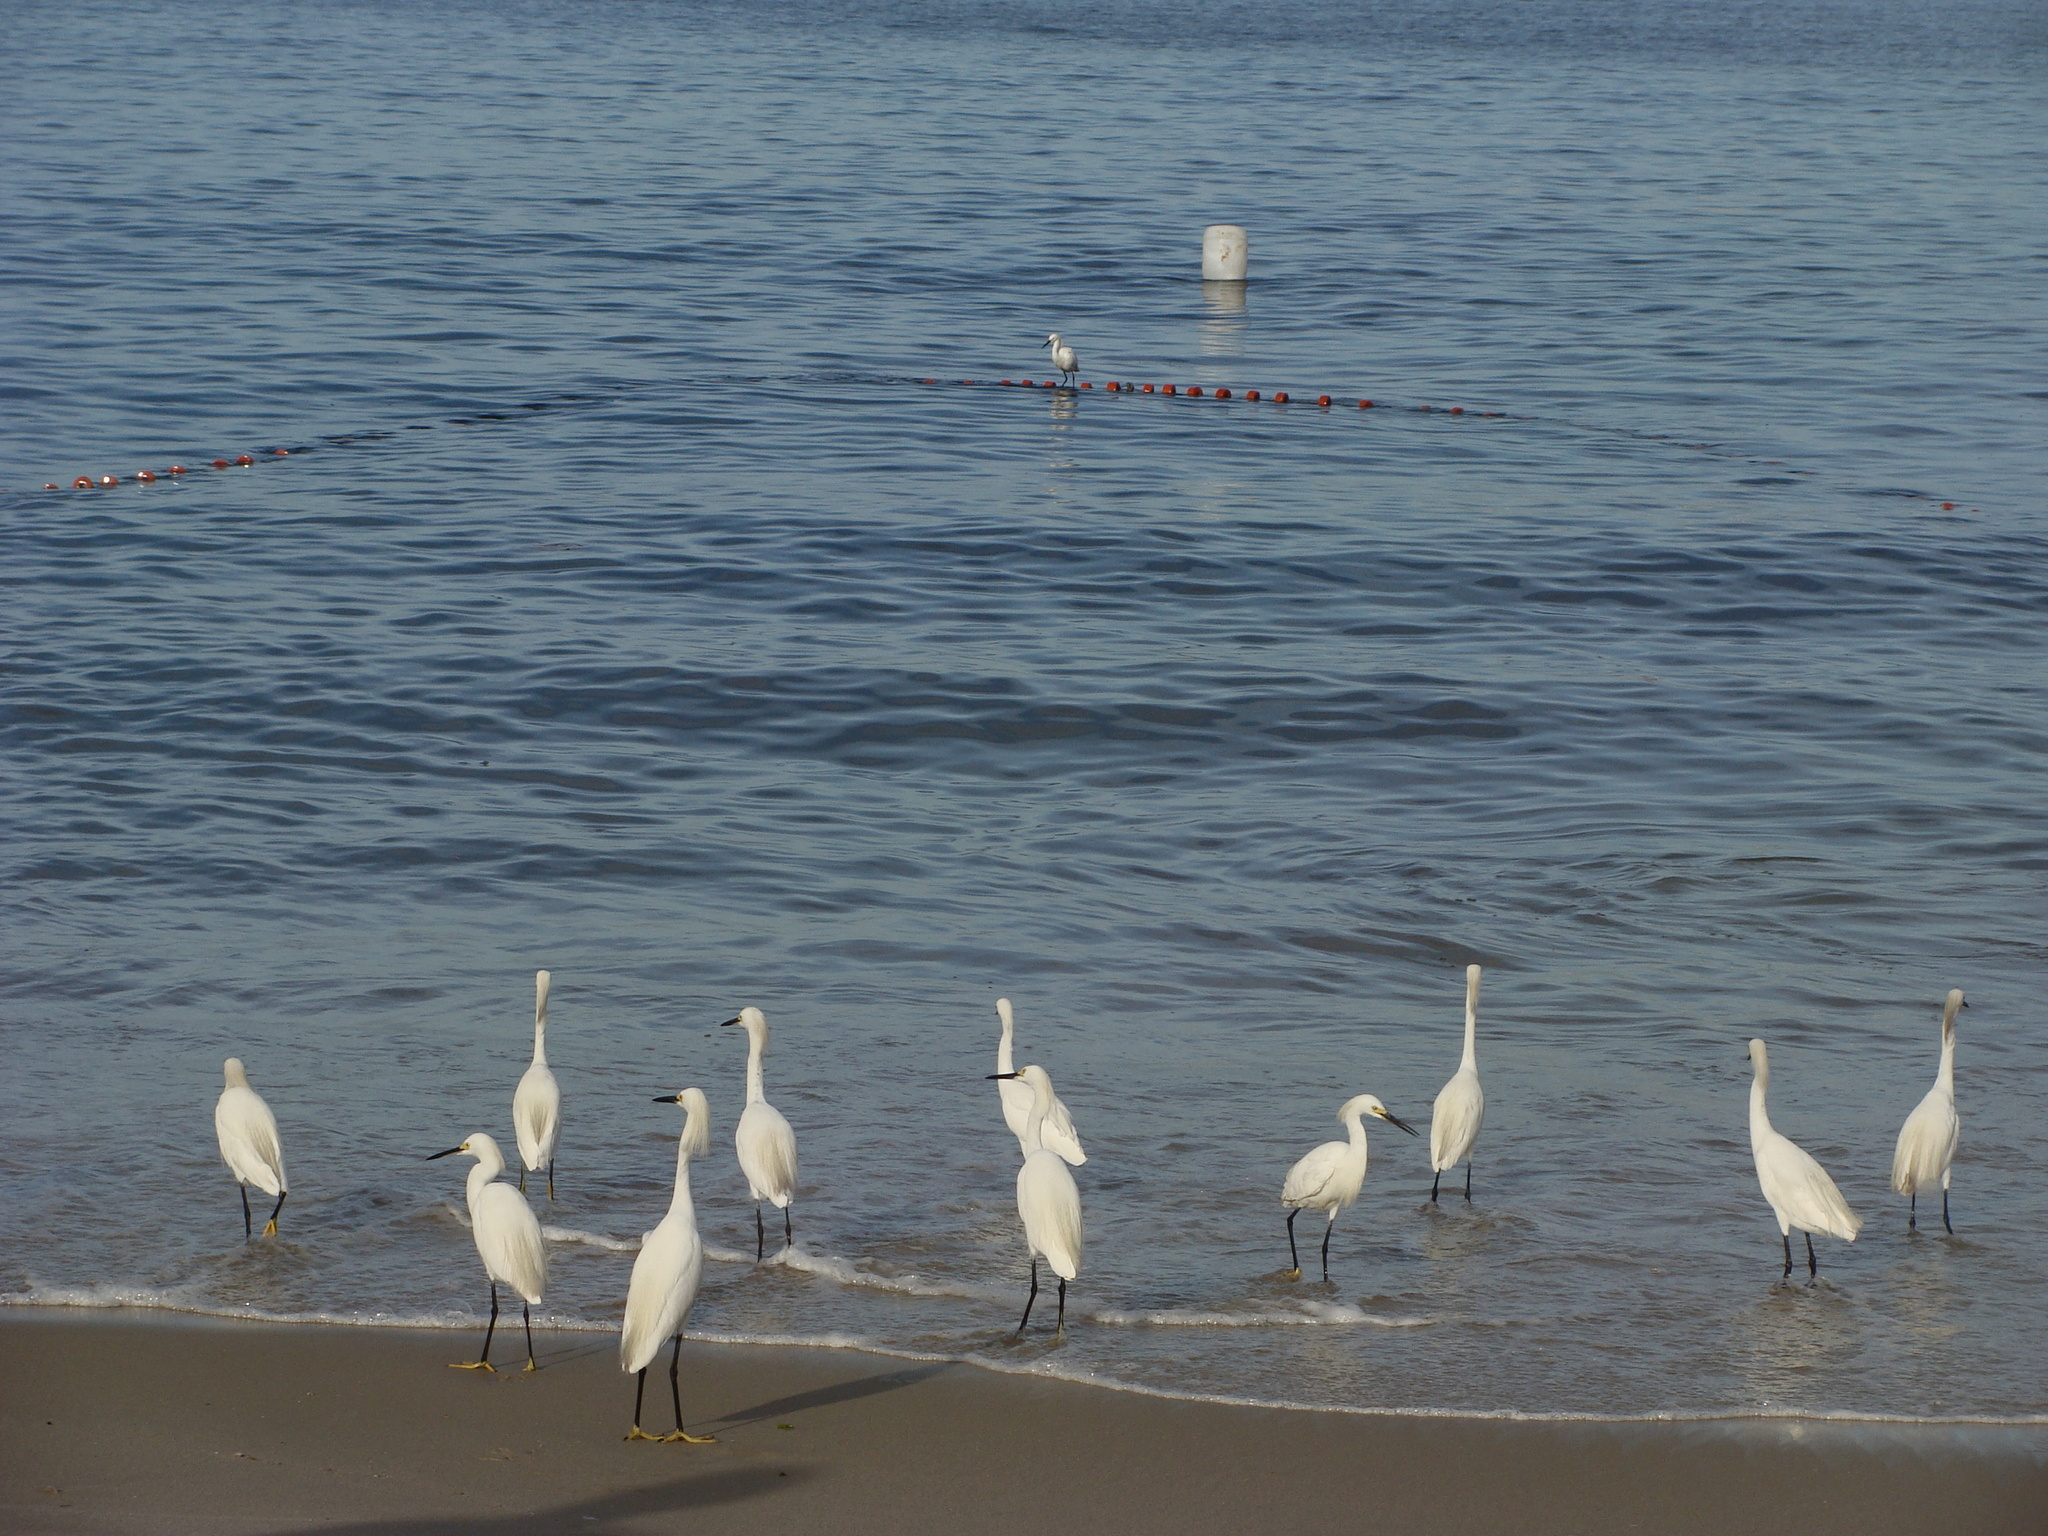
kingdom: Animalia
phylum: Chordata
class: Aves
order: Pelecaniformes
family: Ardeidae
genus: Egretta
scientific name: Egretta thula
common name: Snowy egret
